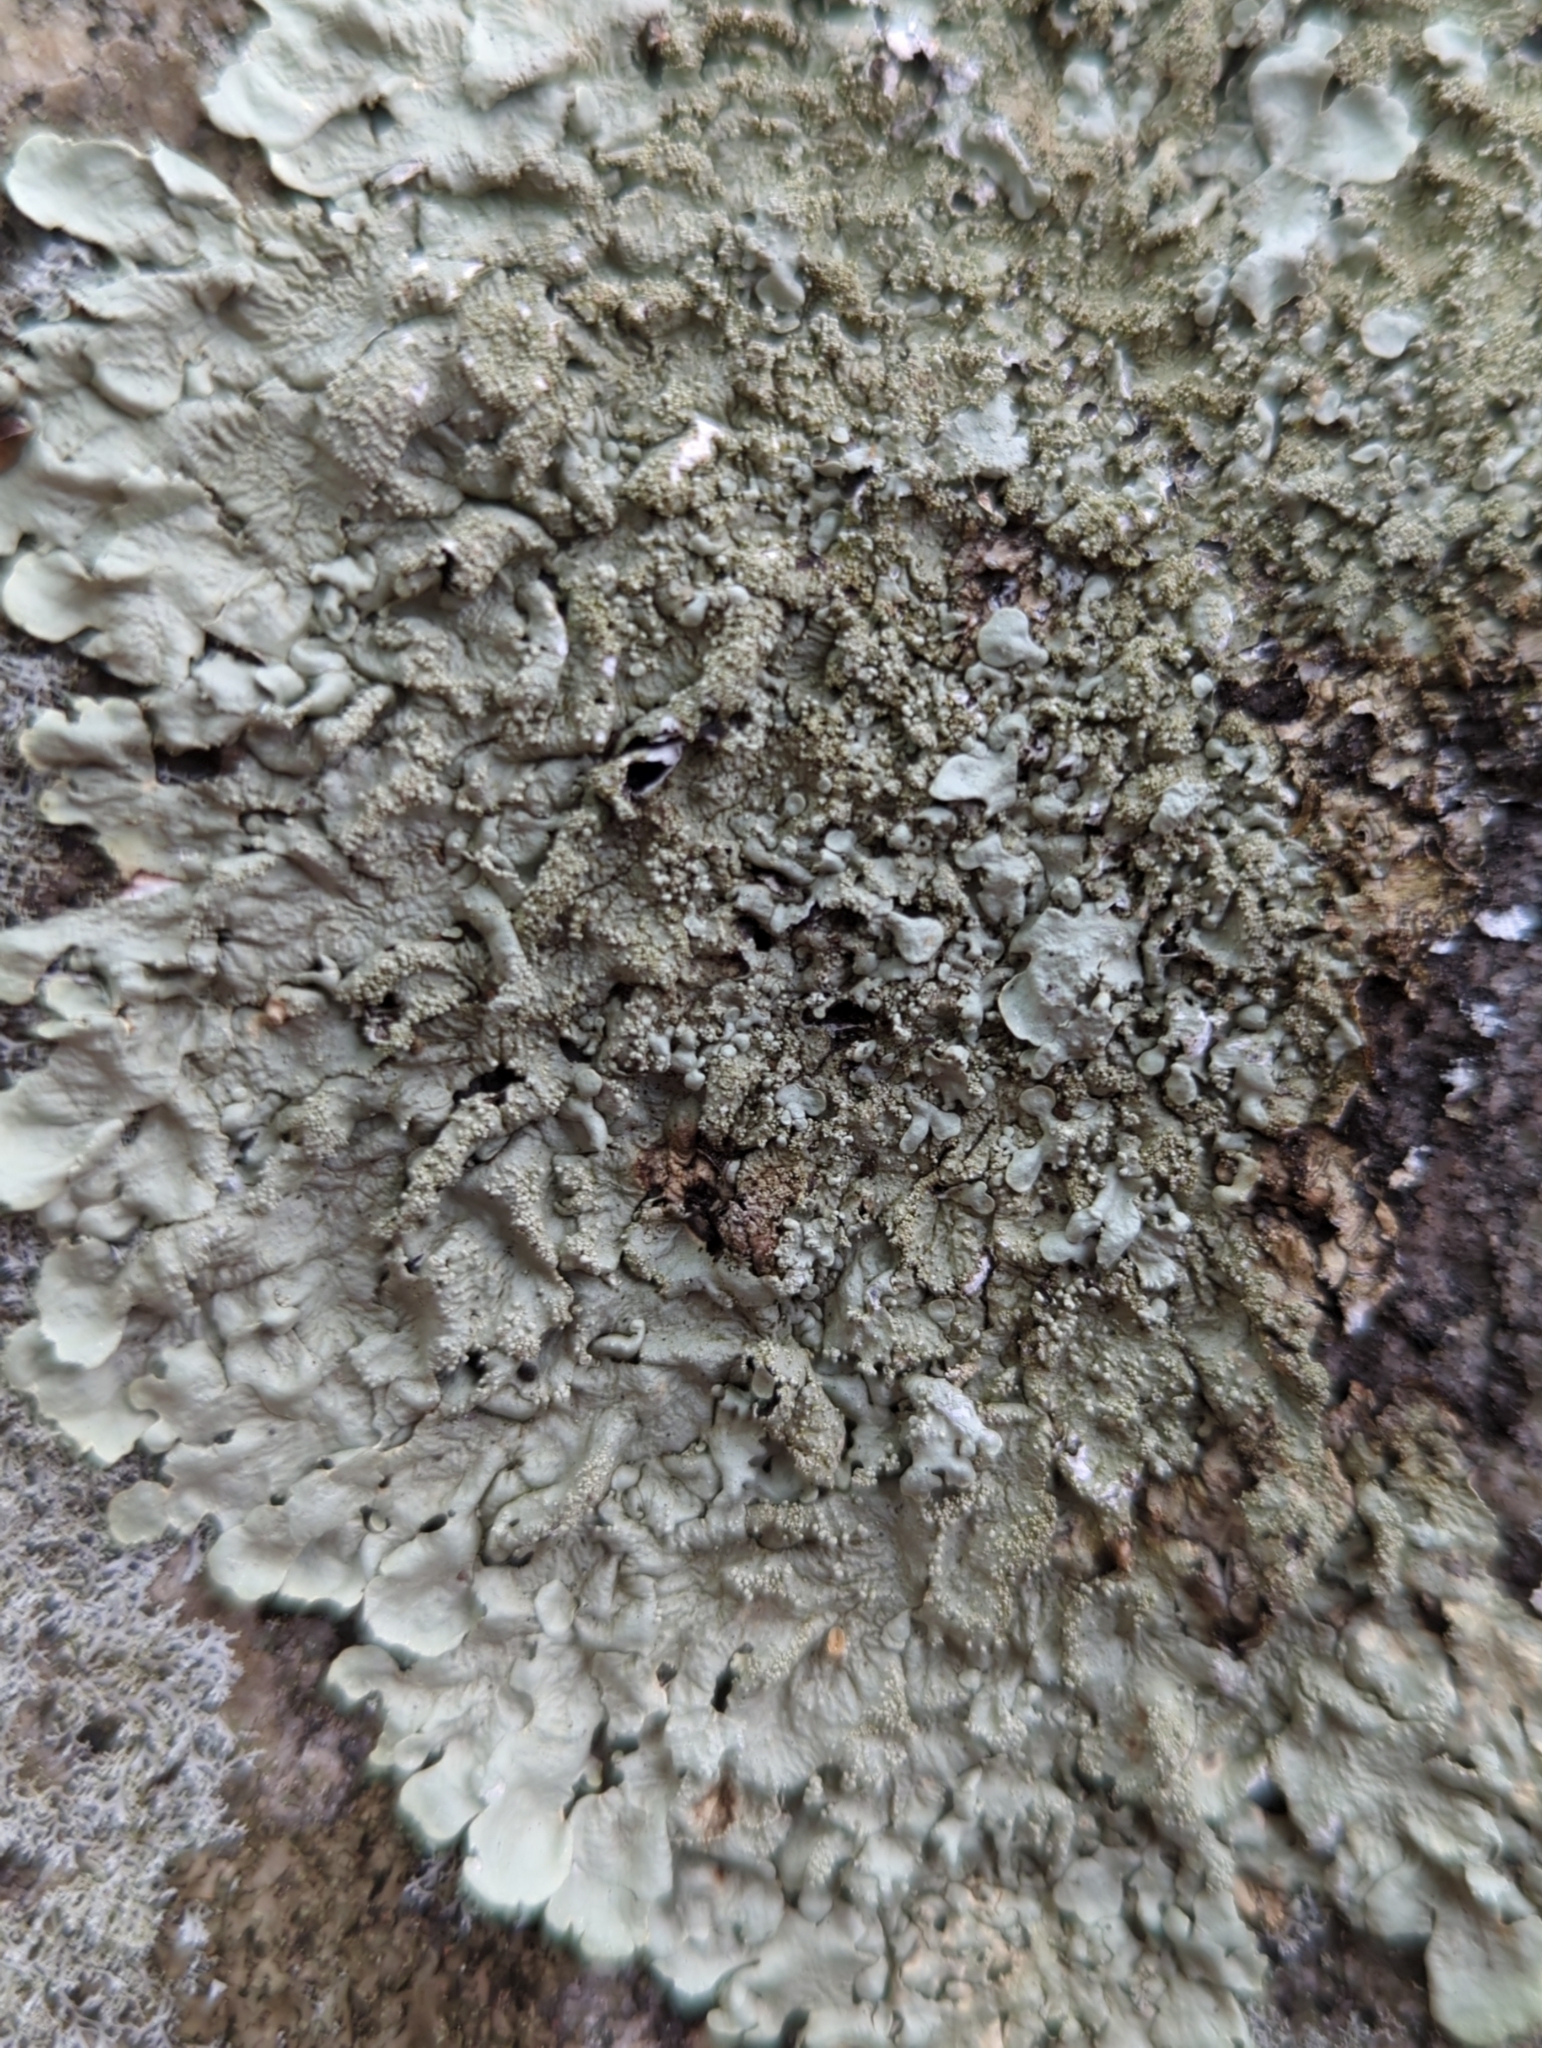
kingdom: Fungi
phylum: Ascomycota
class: Lecanoromycetes
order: Lecanorales
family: Parmeliaceae
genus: Flavoparmelia
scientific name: Flavoparmelia baltimorensis
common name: Rock greenshield
